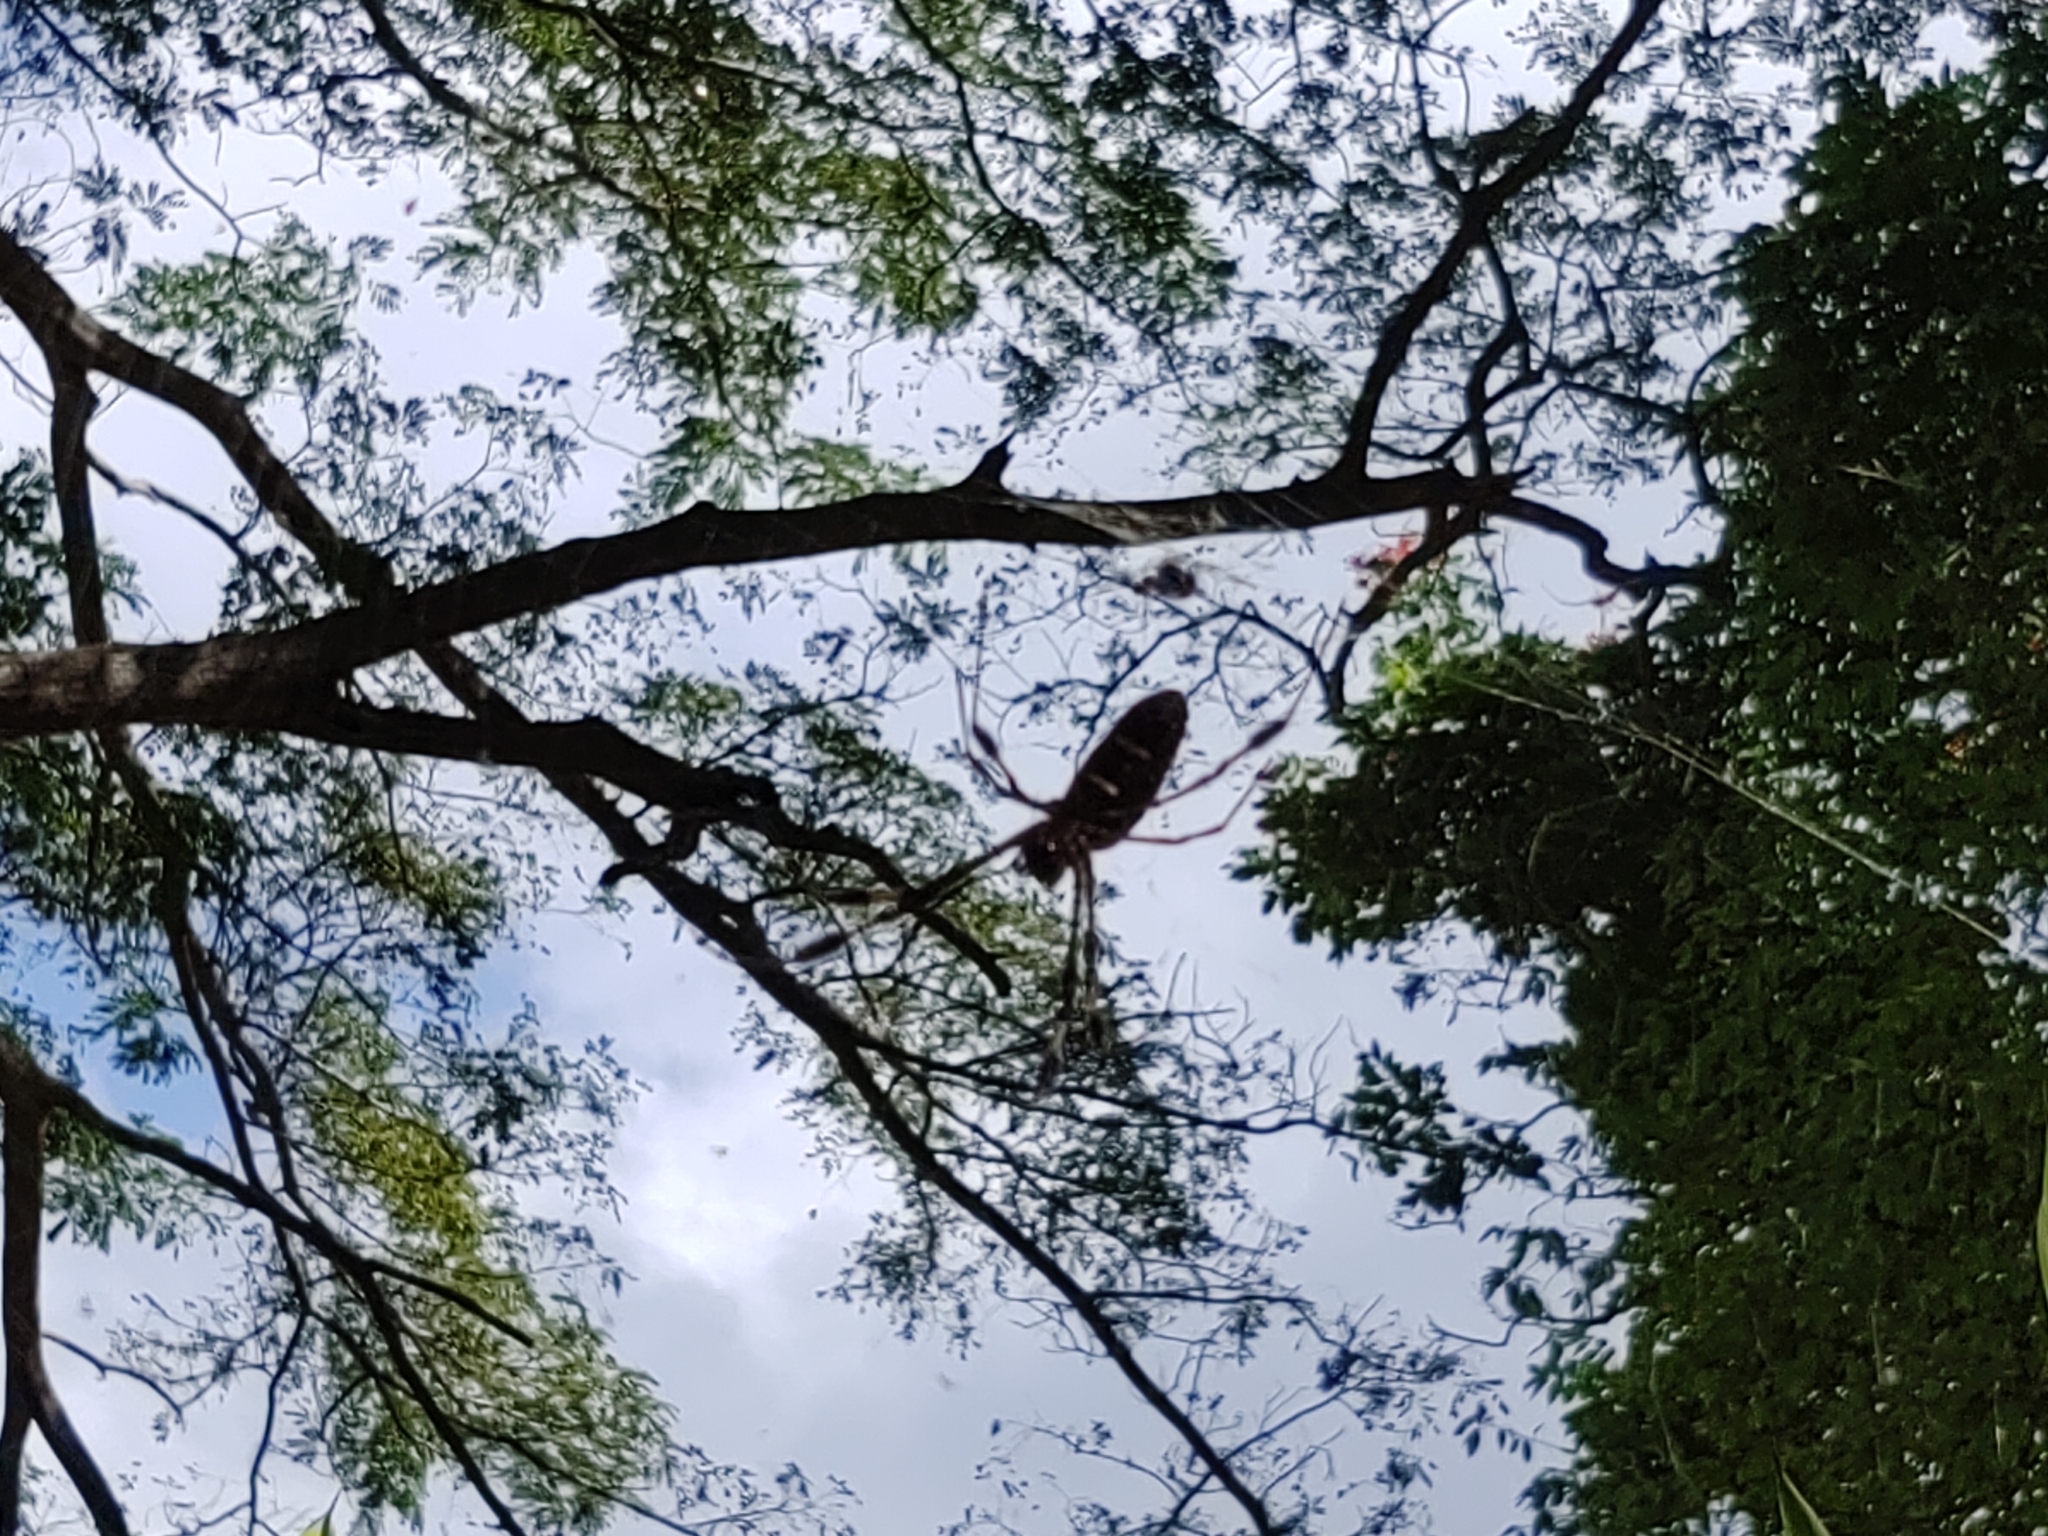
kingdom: Animalia
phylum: Arthropoda
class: Arachnida
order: Araneae
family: Araneidae
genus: Trichonephila
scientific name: Trichonephila clavipes
